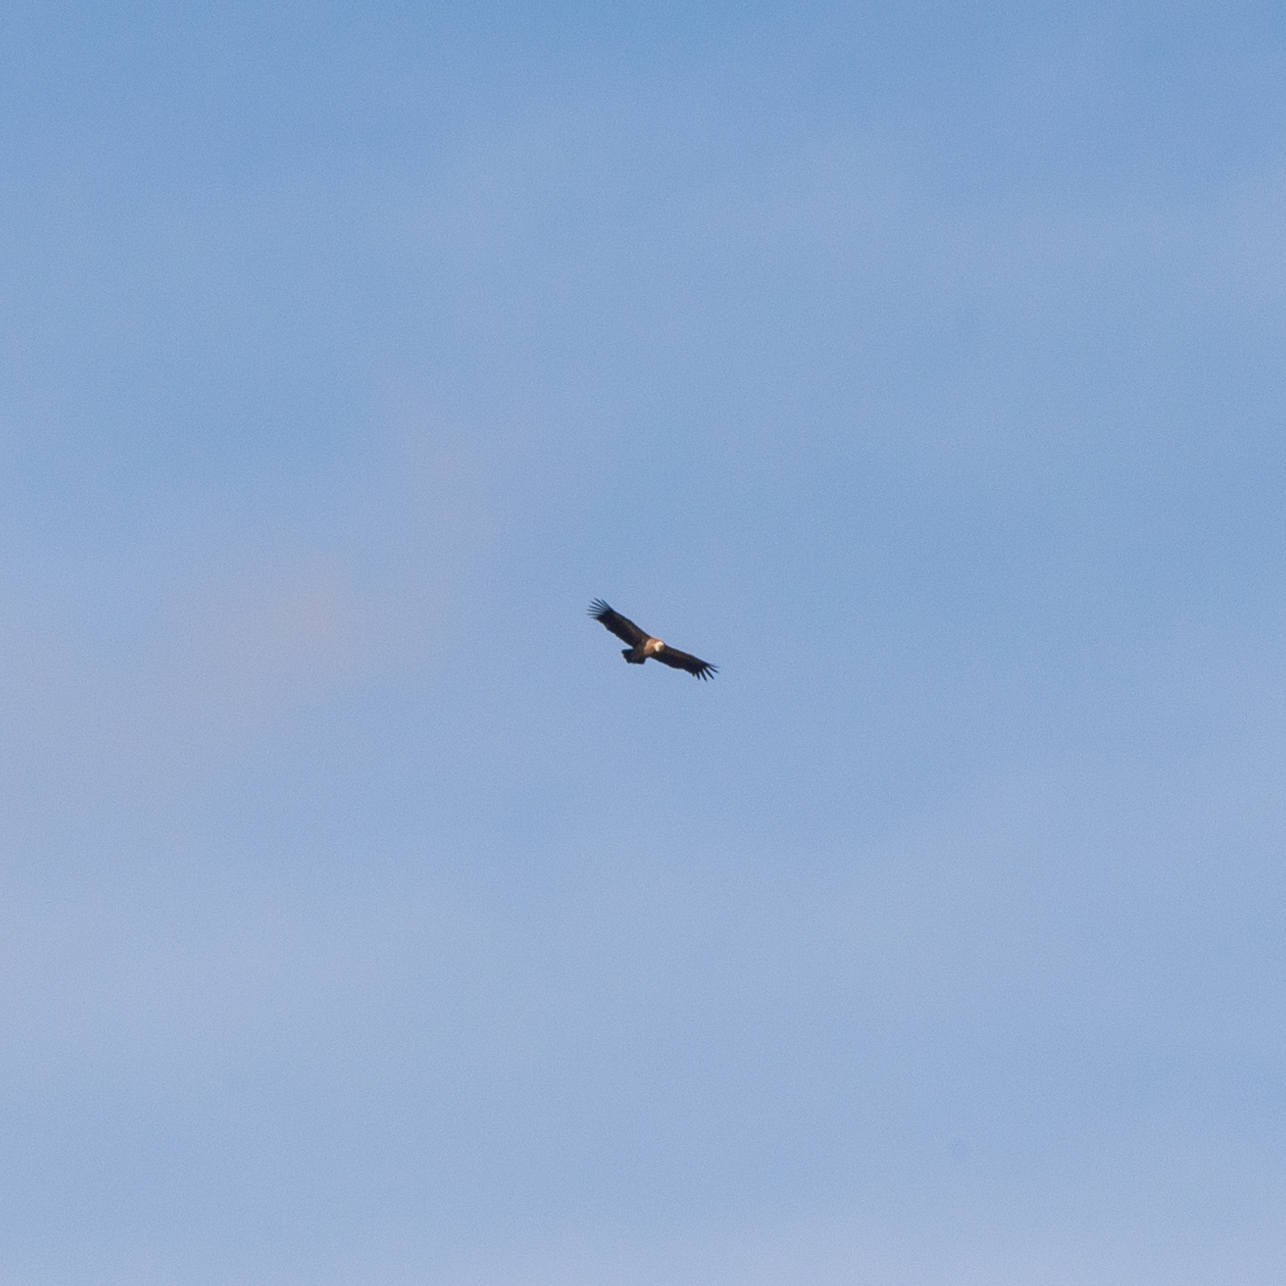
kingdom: Animalia
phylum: Chordata
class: Aves
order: Accipitriformes
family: Accipitridae
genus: Gyps
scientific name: Gyps fulvus
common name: Griffon vulture
